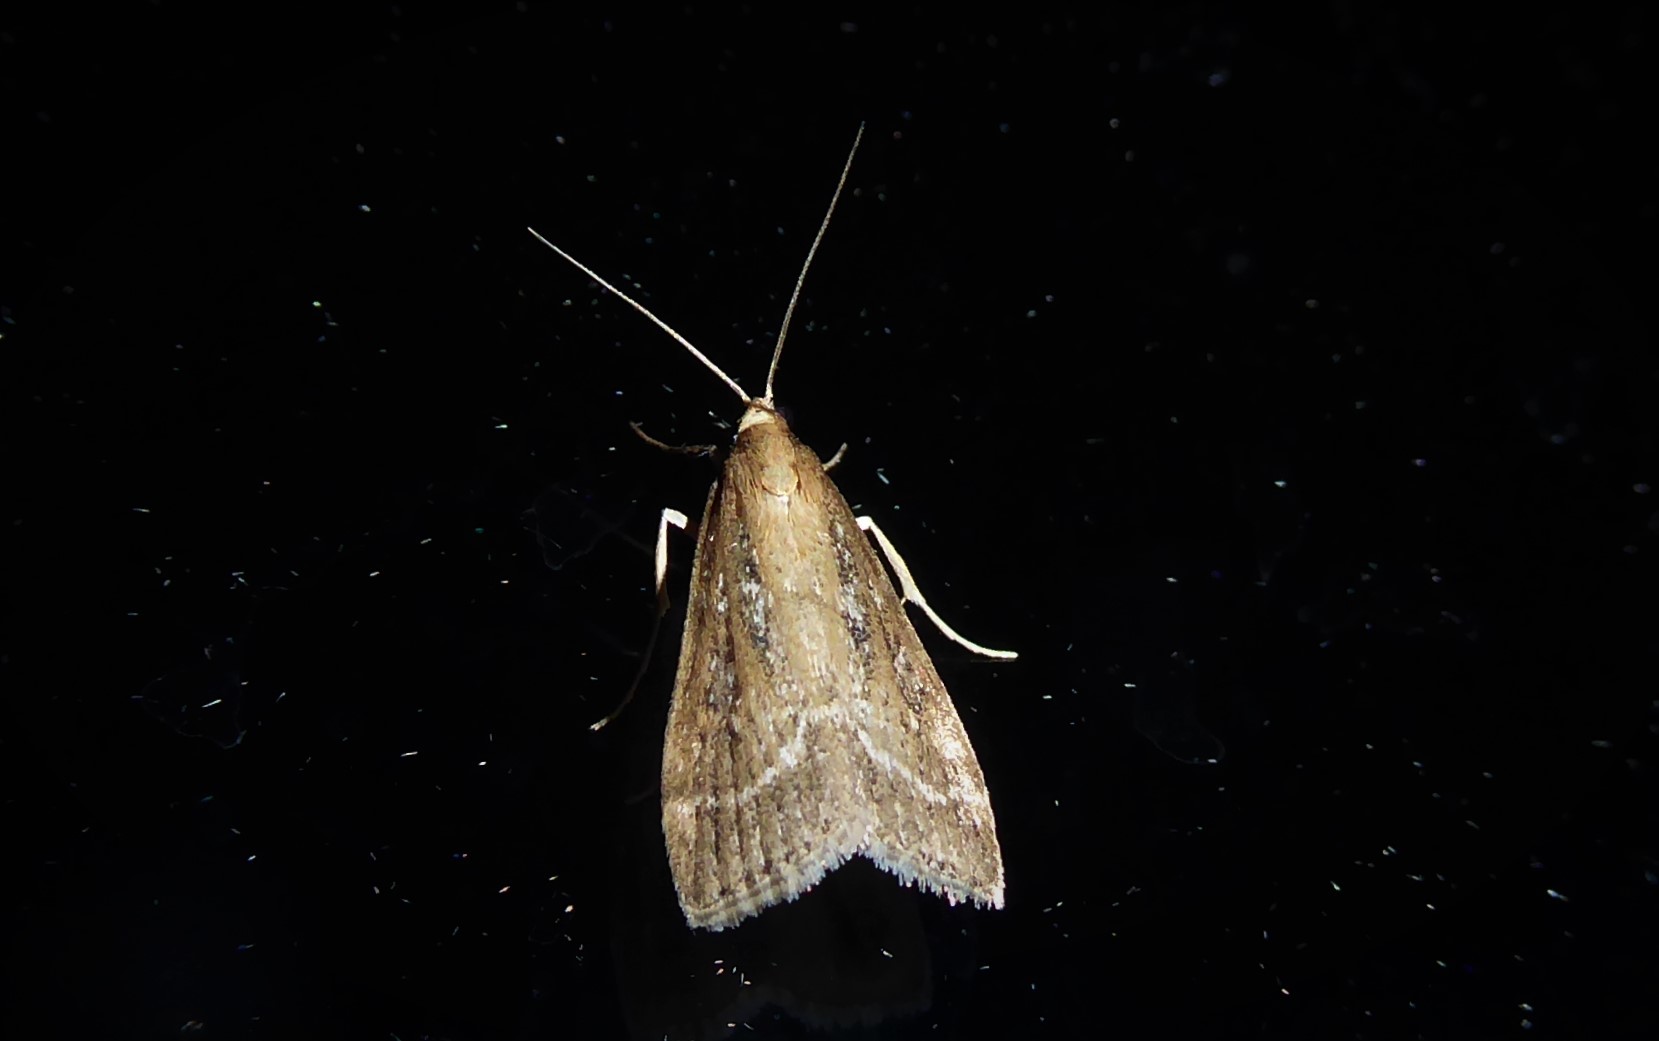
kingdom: Animalia
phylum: Arthropoda
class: Insecta
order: Lepidoptera
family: Crambidae
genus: Eudonia
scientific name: Eudonia octophora
